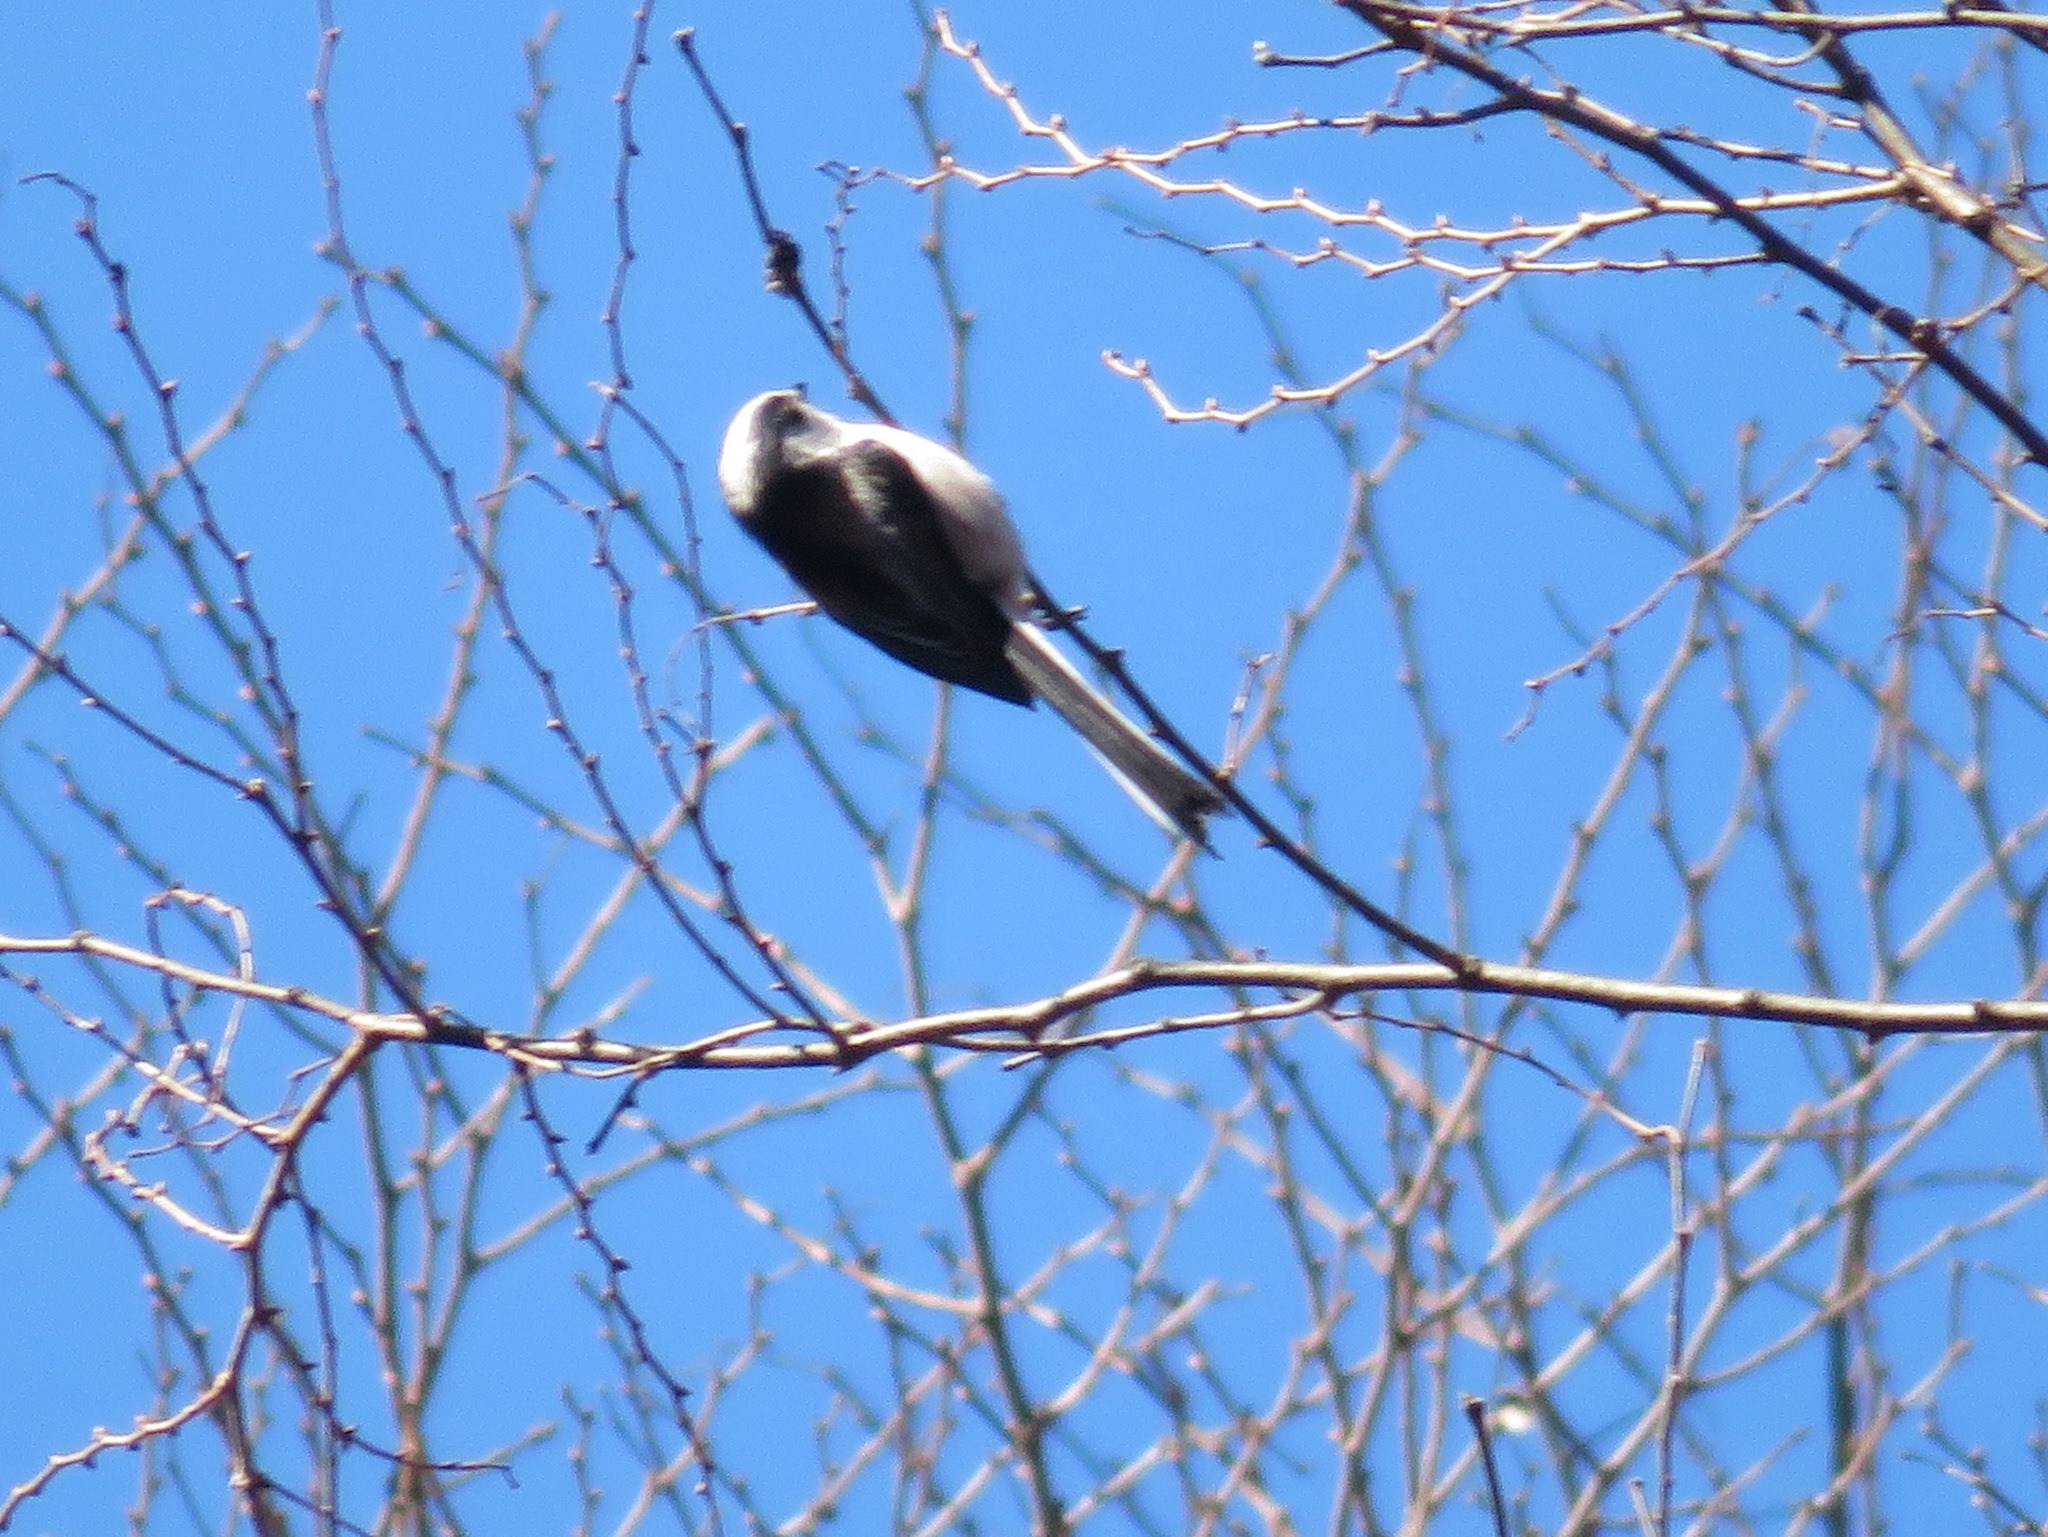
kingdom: Animalia
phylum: Chordata
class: Aves
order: Passeriformes
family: Aegithalidae
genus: Aegithalos
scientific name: Aegithalos caudatus
